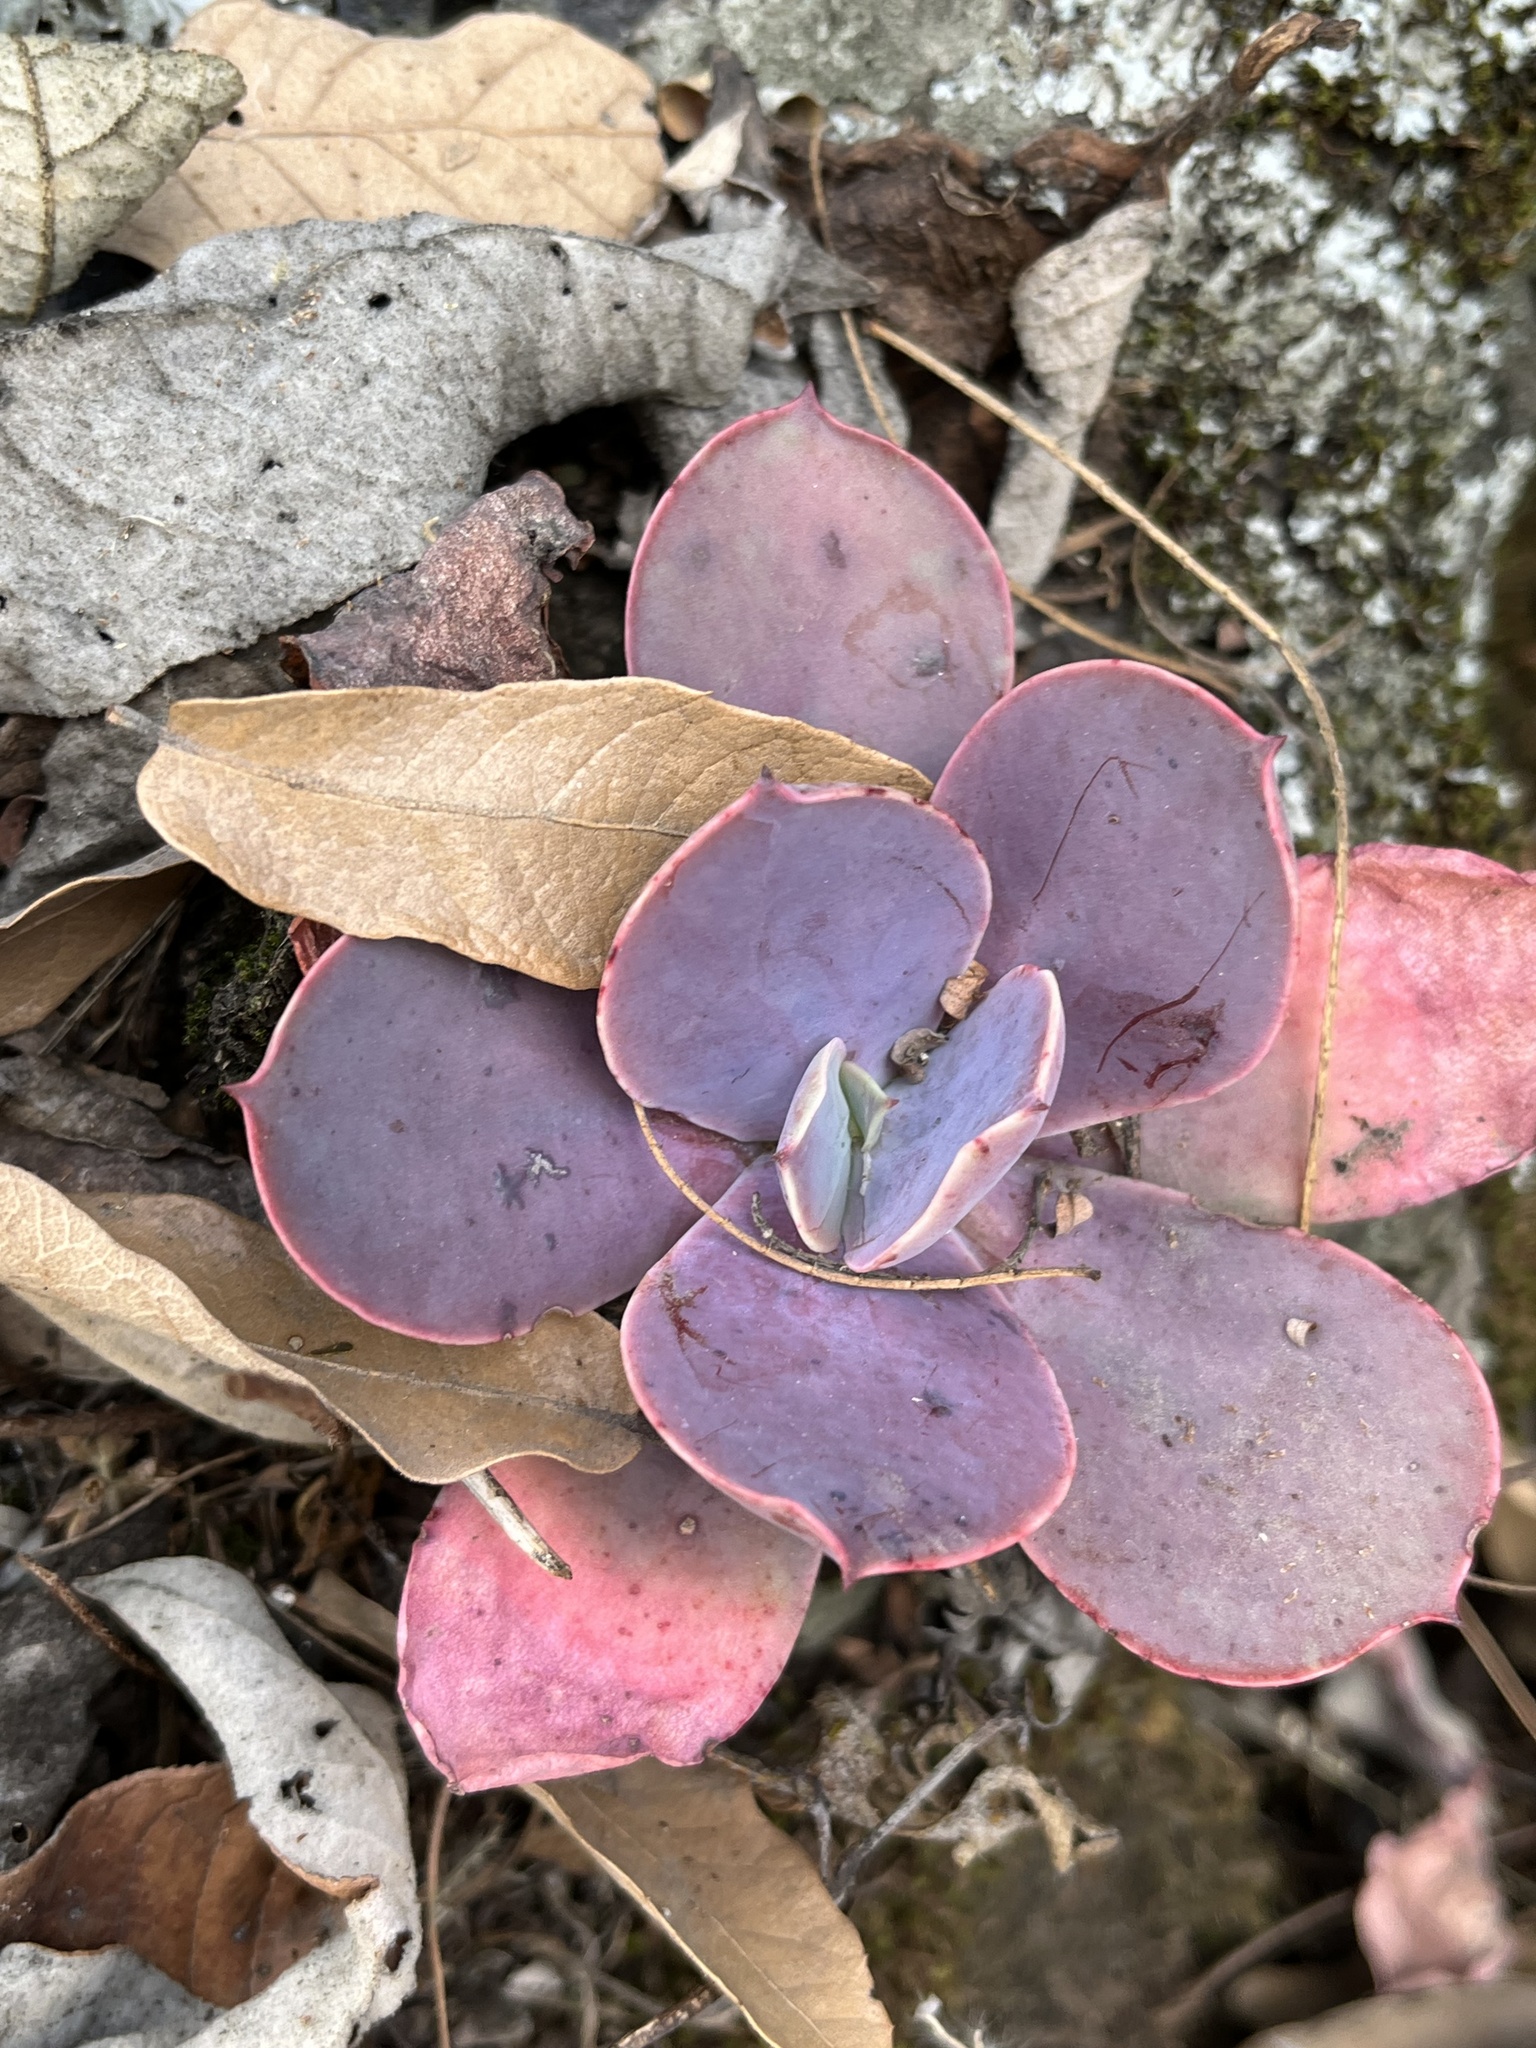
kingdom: Plantae
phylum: Tracheophyta
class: Magnoliopsida
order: Saxifragales
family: Crassulaceae
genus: Echeveria
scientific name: Echeveria gibbiflora
